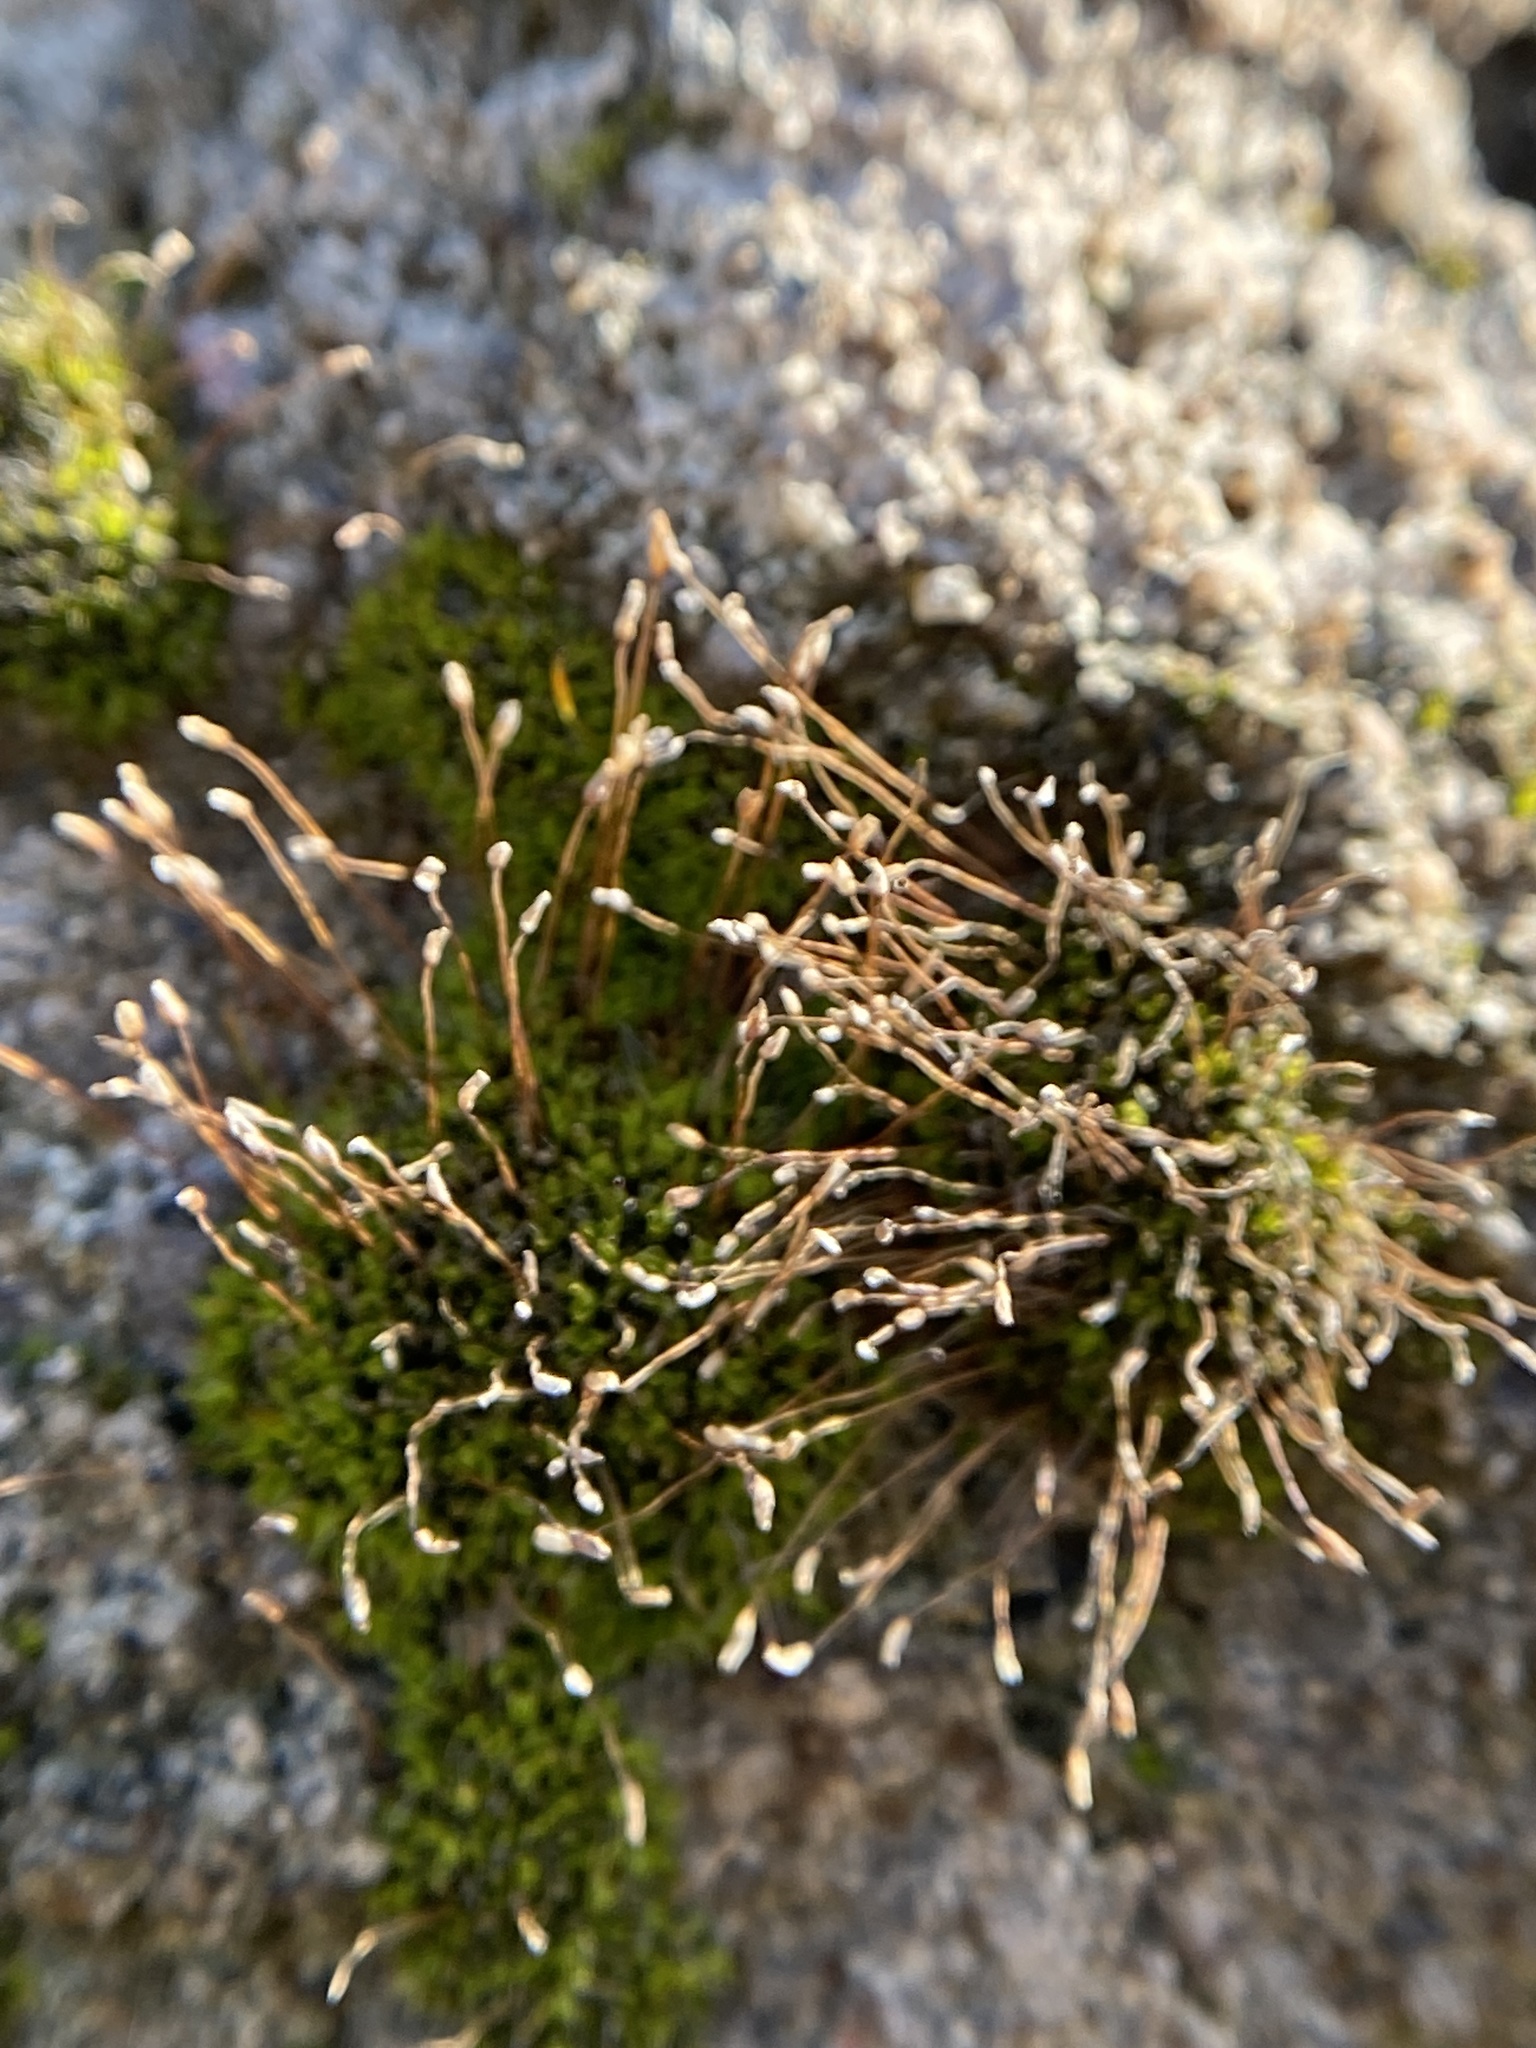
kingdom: Plantae
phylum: Bryophyta
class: Bryopsida
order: Pottiales
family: Pottiaceae
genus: Tortula
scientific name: Tortula muralis
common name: Wall screw-moss
